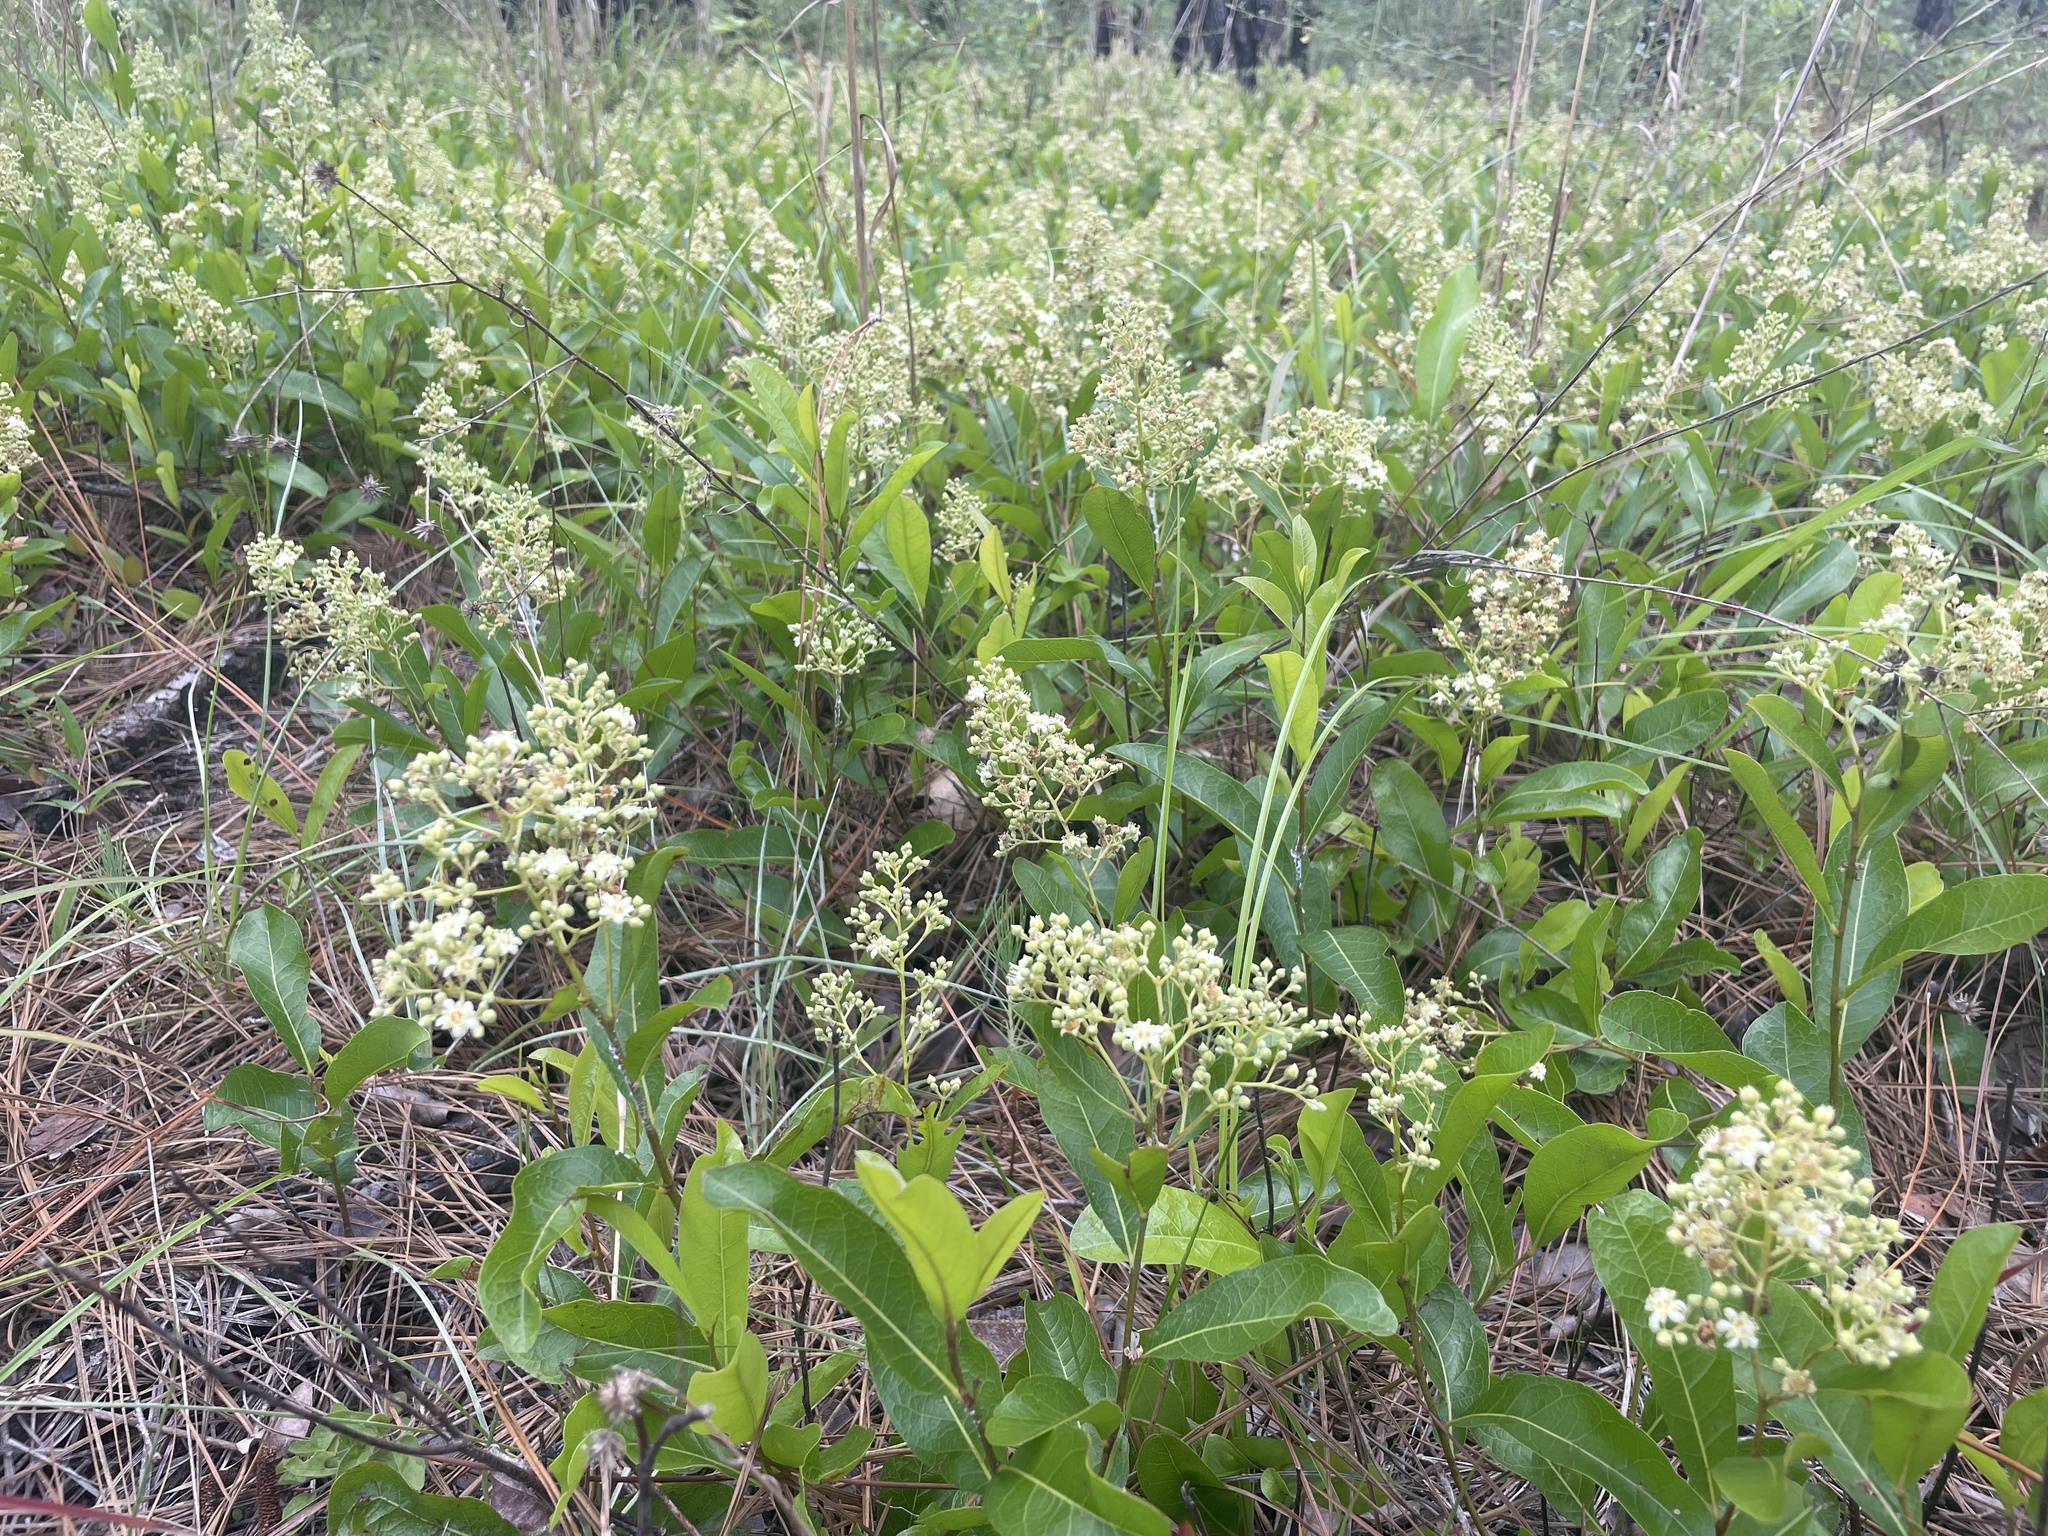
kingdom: Plantae
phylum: Tracheophyta
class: Magnoliopsida
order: Malpighiales
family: Chrysobalanaceae
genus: Geobalanus
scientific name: Geobalanus oblongifolius
